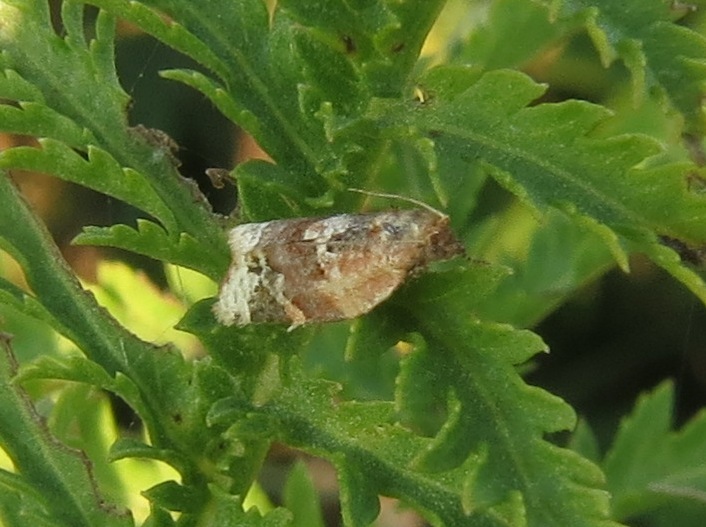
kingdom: Animalia
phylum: Arthropoda
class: Insecta
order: Lepidoptera
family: Tortricidae
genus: Argyrotaenia
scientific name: Argyrotaenia velutinana
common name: Red-banded leafroller moth
